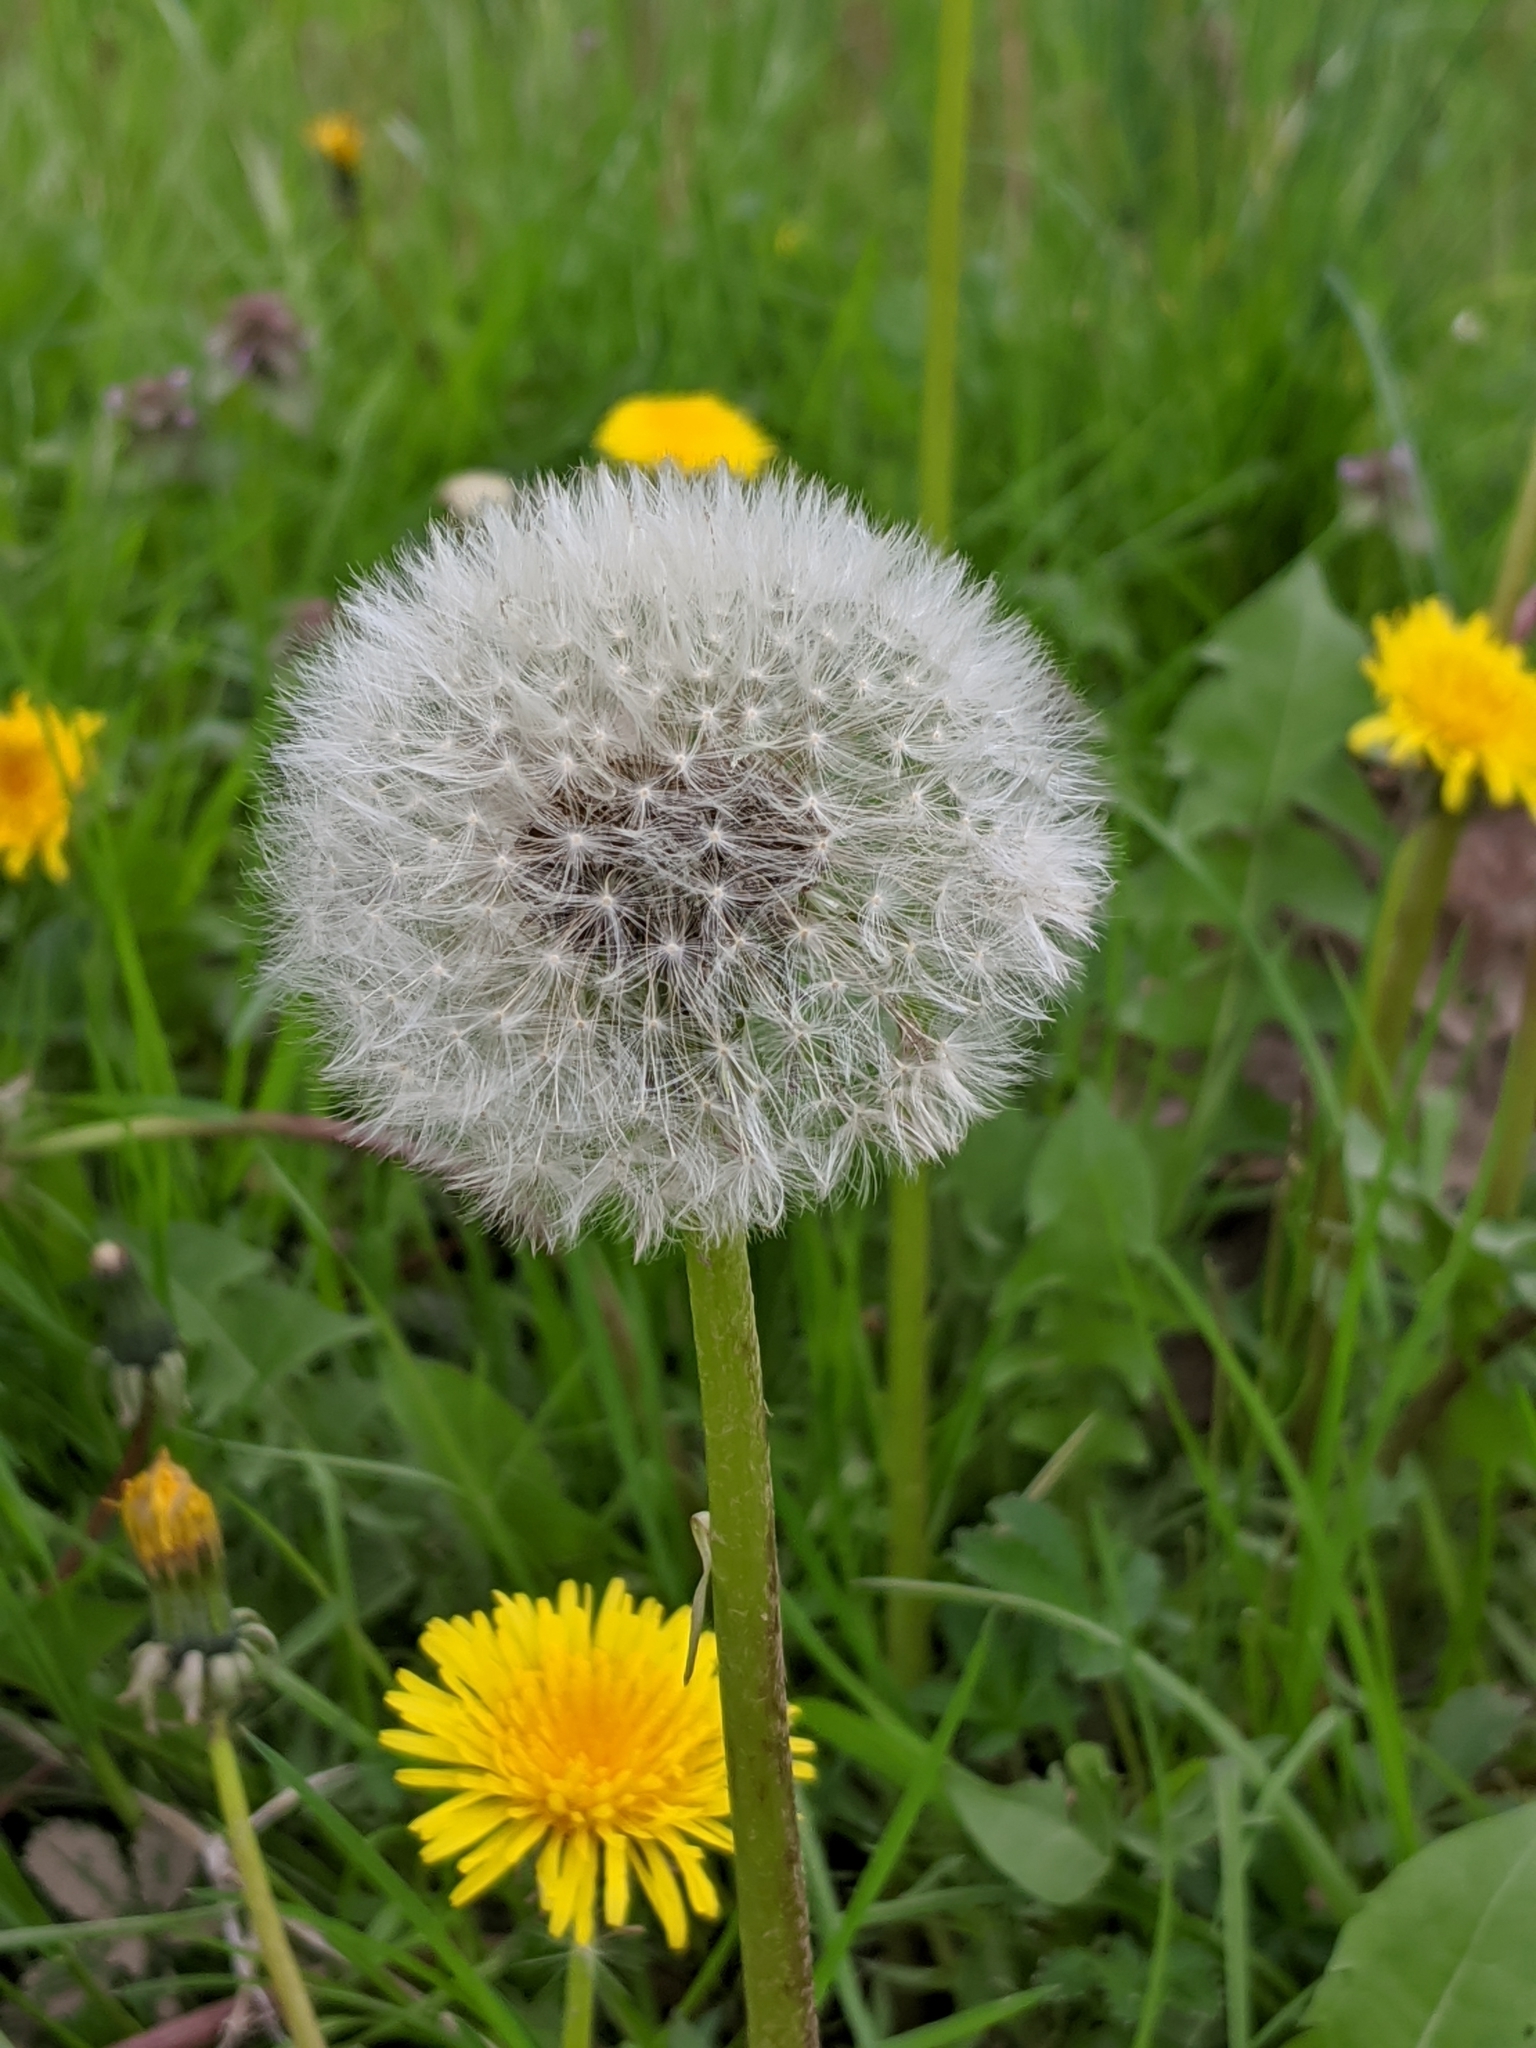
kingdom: Plantae
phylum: Tracheophyta
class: Magnoliopsida
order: Asterales
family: Asteraceae
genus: Taraxacum
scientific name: Taraxacum officinale
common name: Common dandelion
